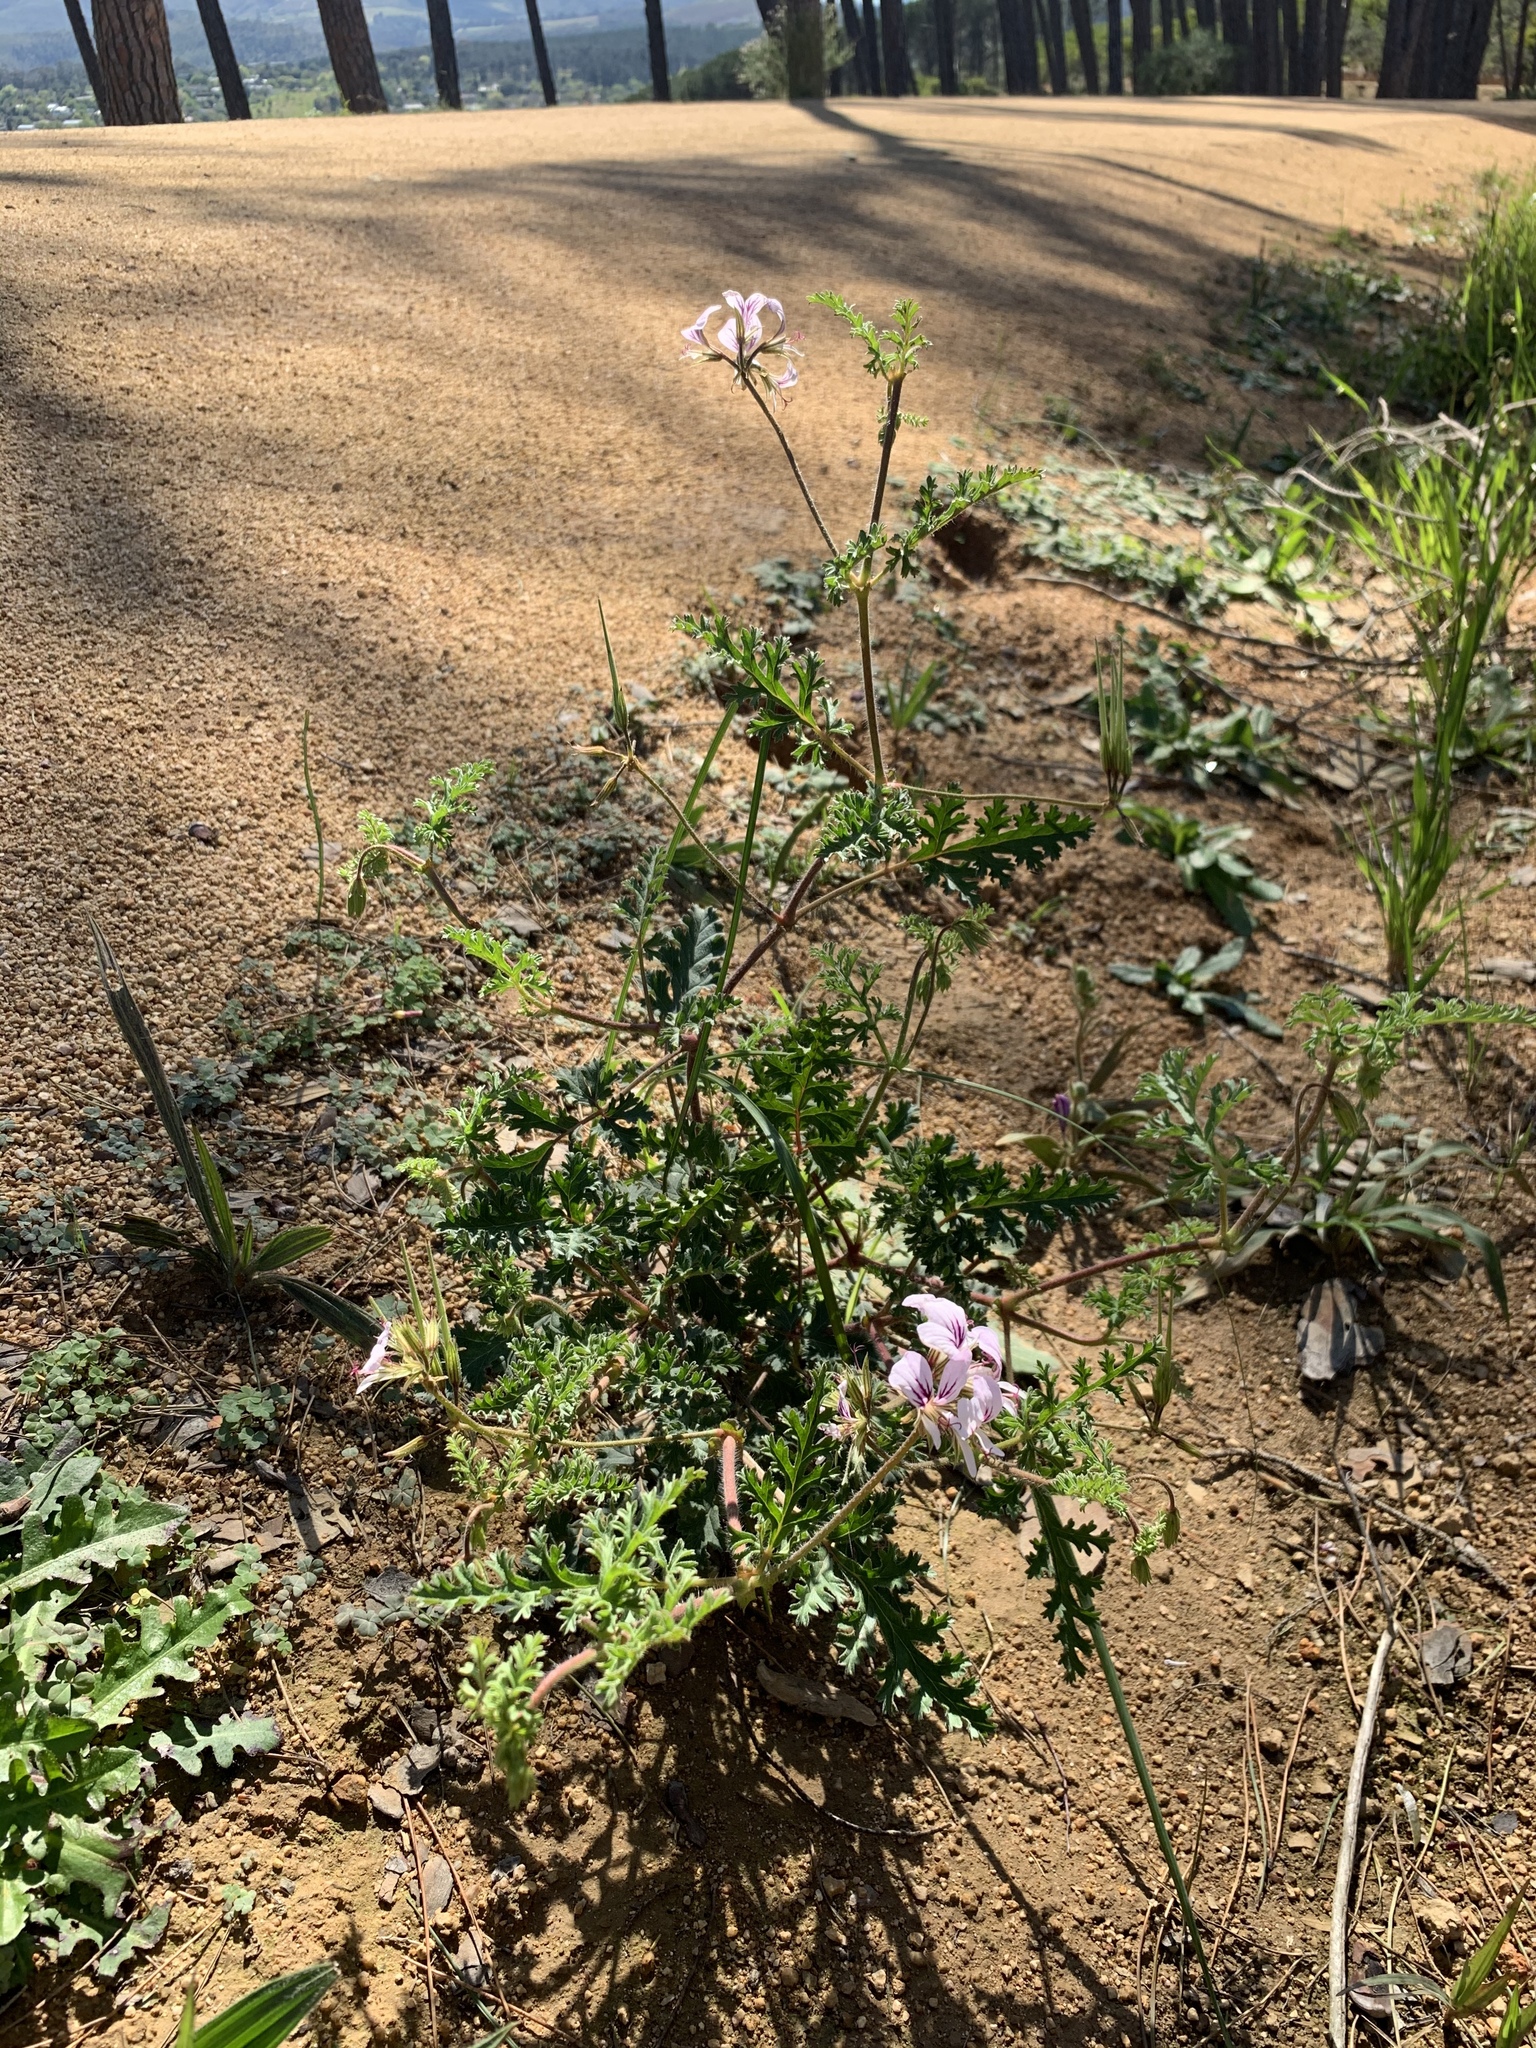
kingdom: Plantae
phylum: Tracheophyta
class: Magnoliopsida
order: Geraniales
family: Geraniaceae
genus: Pelargonium
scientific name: Pelargonium myrrhifolium
